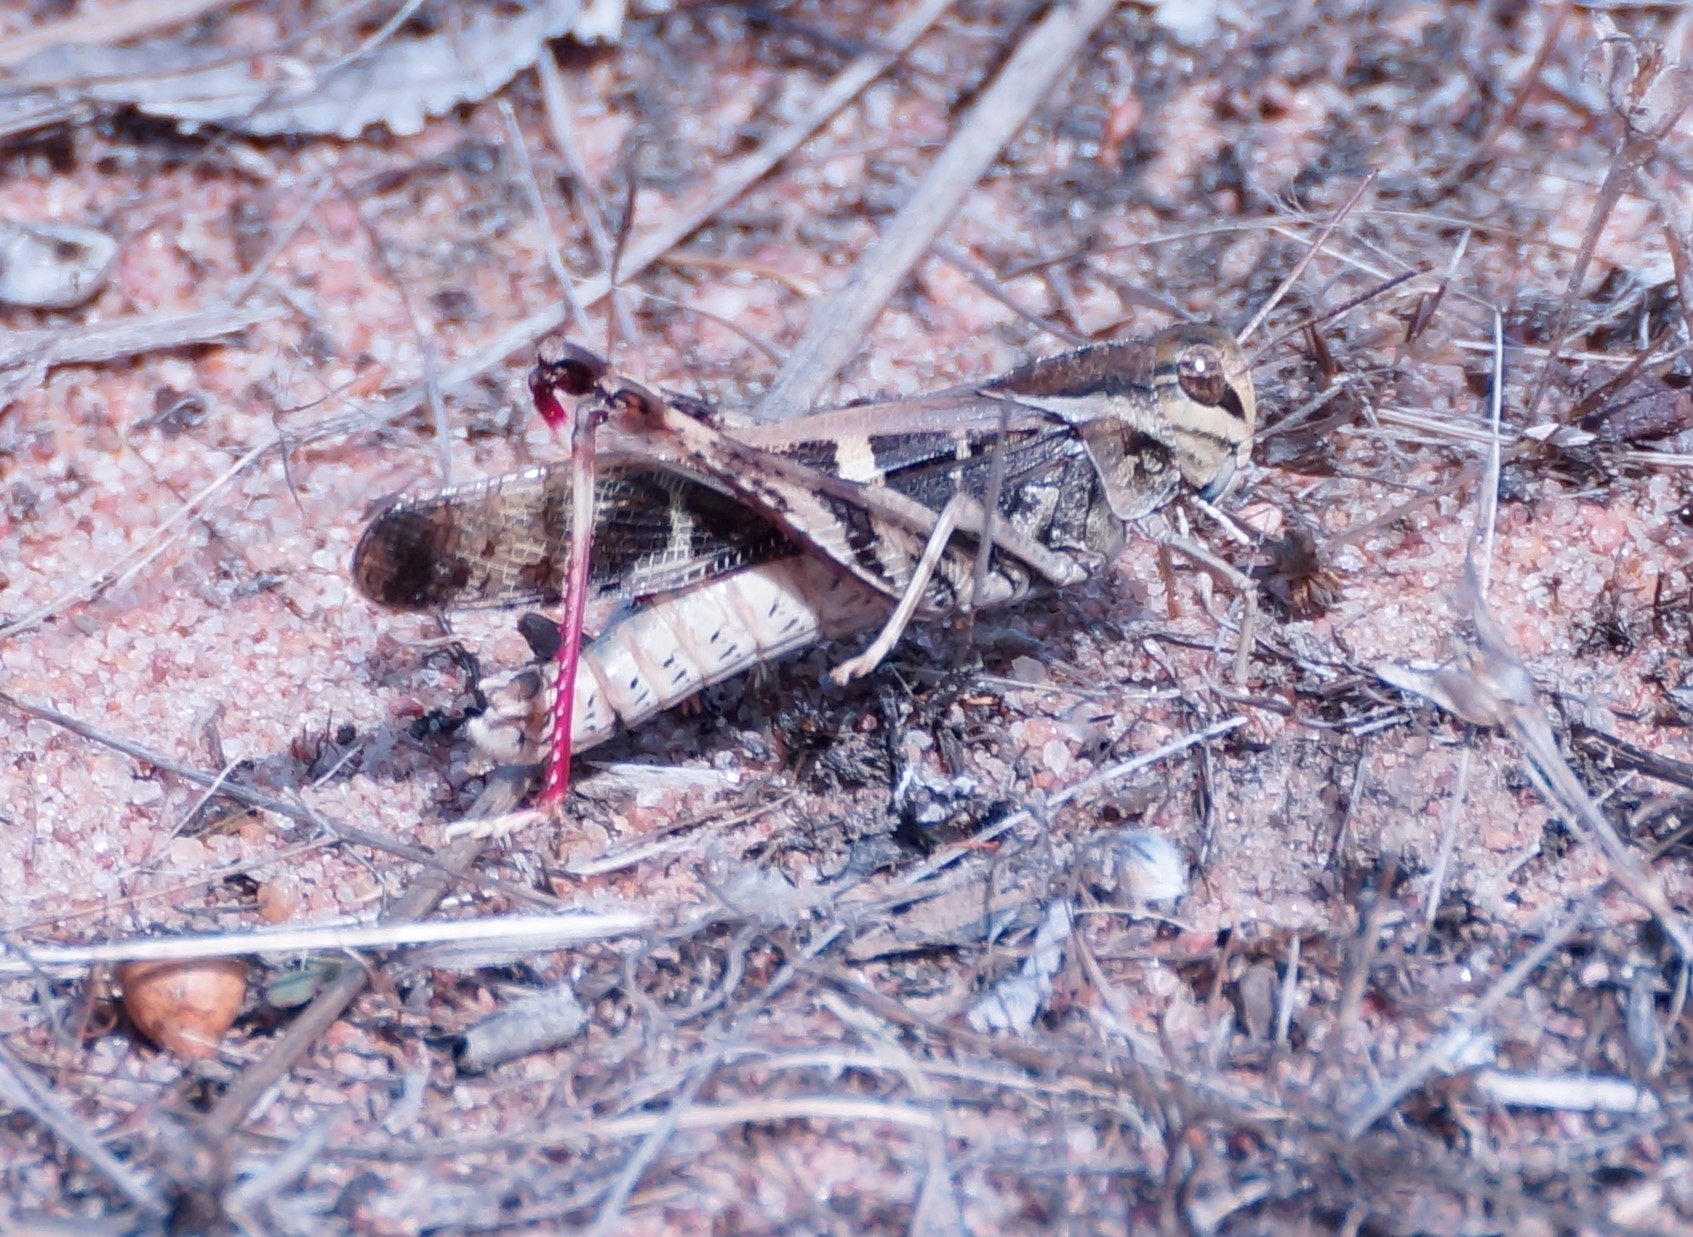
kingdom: Animalia
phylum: Arthropoda
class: Insecta
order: Orthoptera
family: Acrididae
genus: Gastrimargus
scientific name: Gastrimargus musicus
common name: Yellow-winged locust
